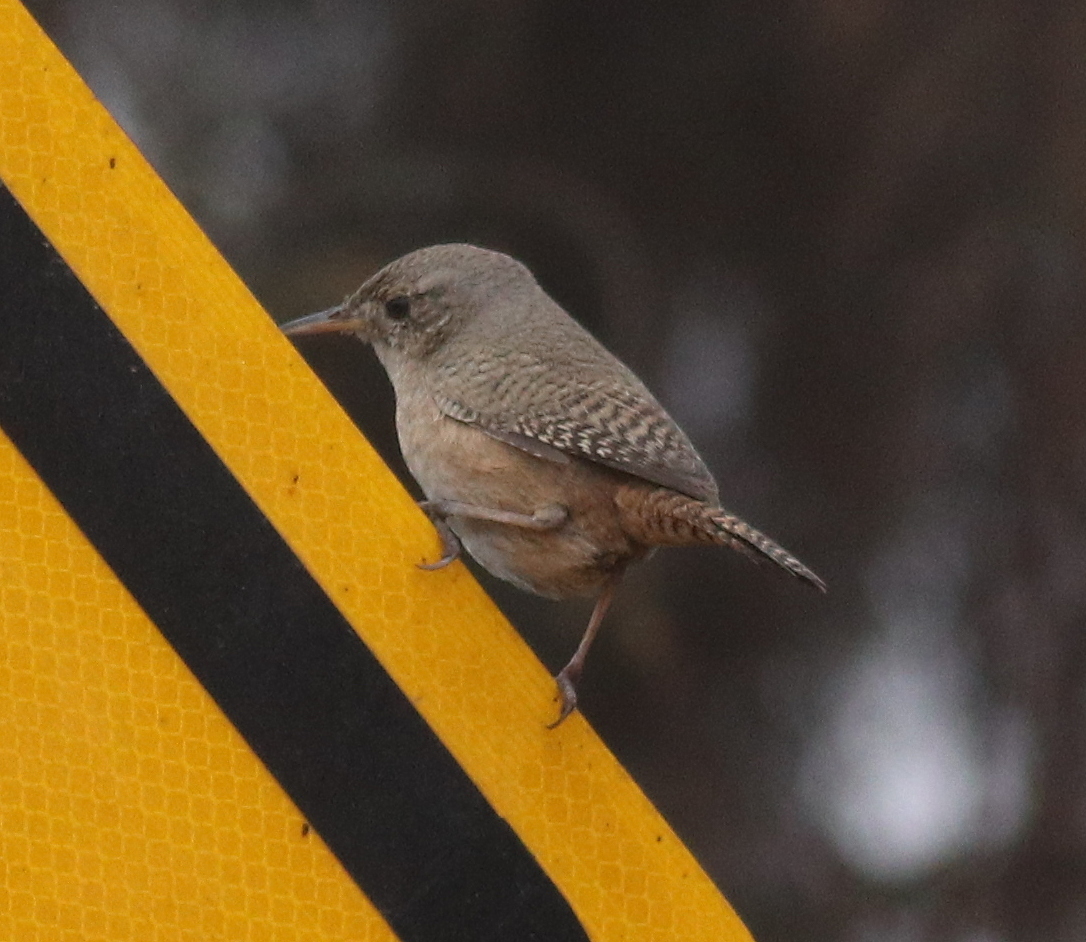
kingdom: Animalia
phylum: Chordata
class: Aves
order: Passeriformes
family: Troglodytidae
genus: Troglodytes
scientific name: Troglodytes aedon
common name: House wren
